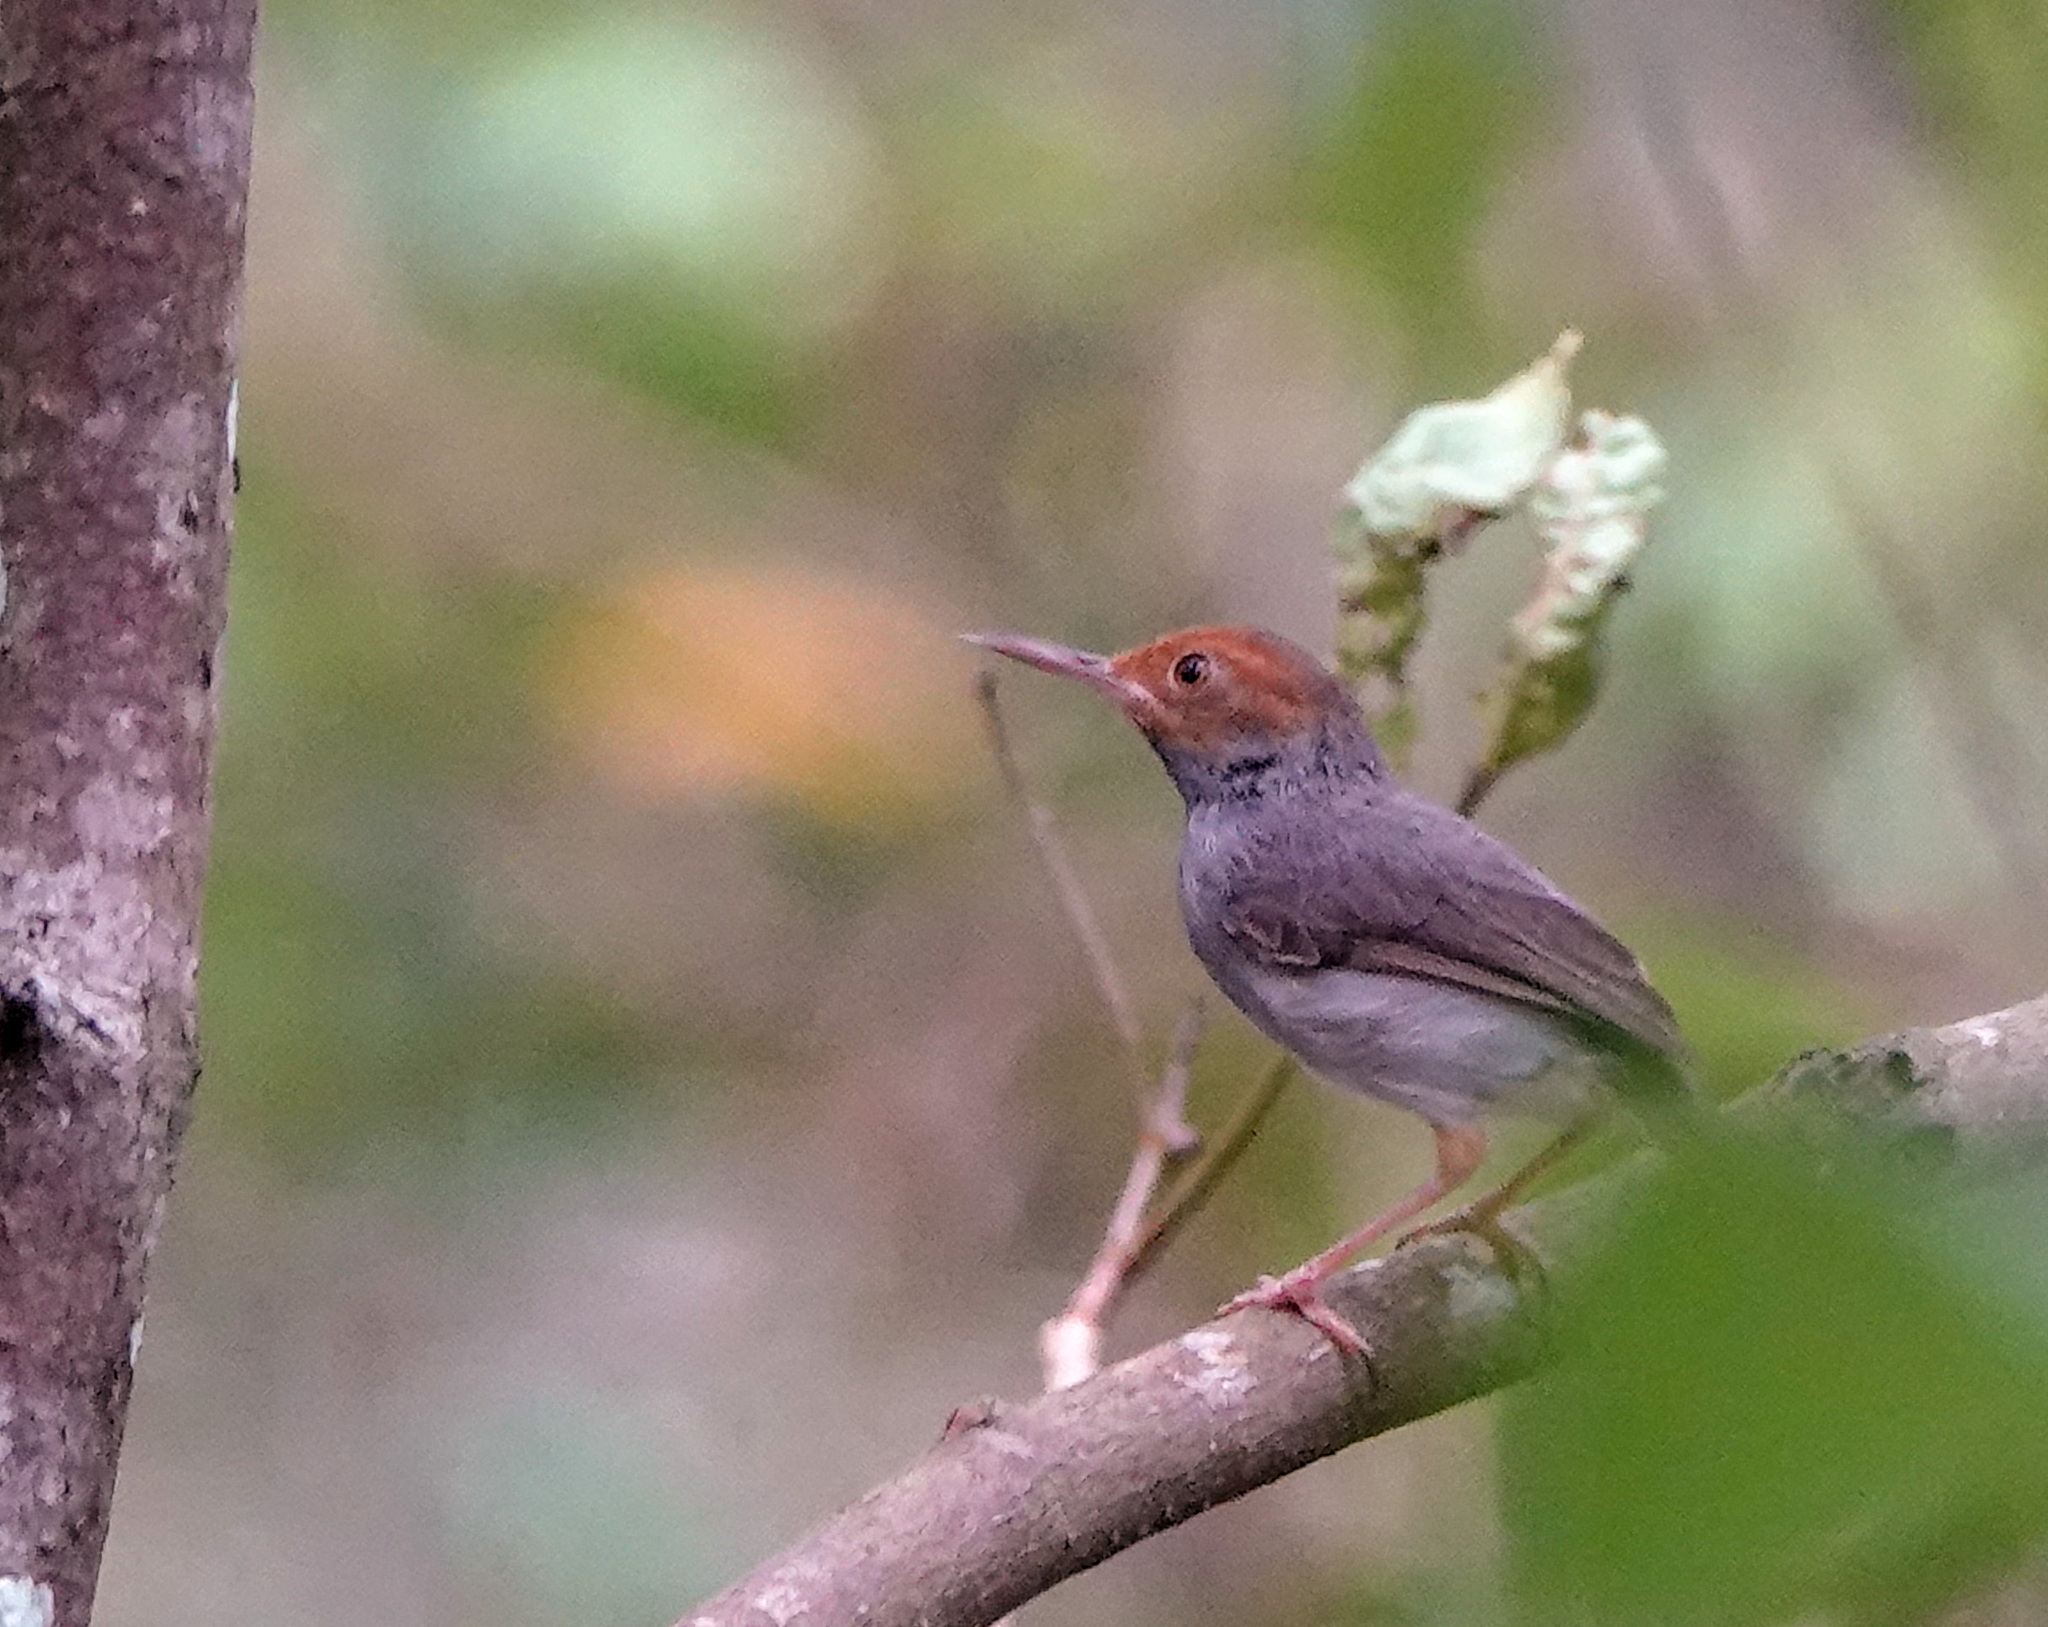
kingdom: Animalia
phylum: Chordata
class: Aves
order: Passeriformes
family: Cisticolidae
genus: Orthotomus
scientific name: Orthotomus ruficeps
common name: Ashy tailorbird
